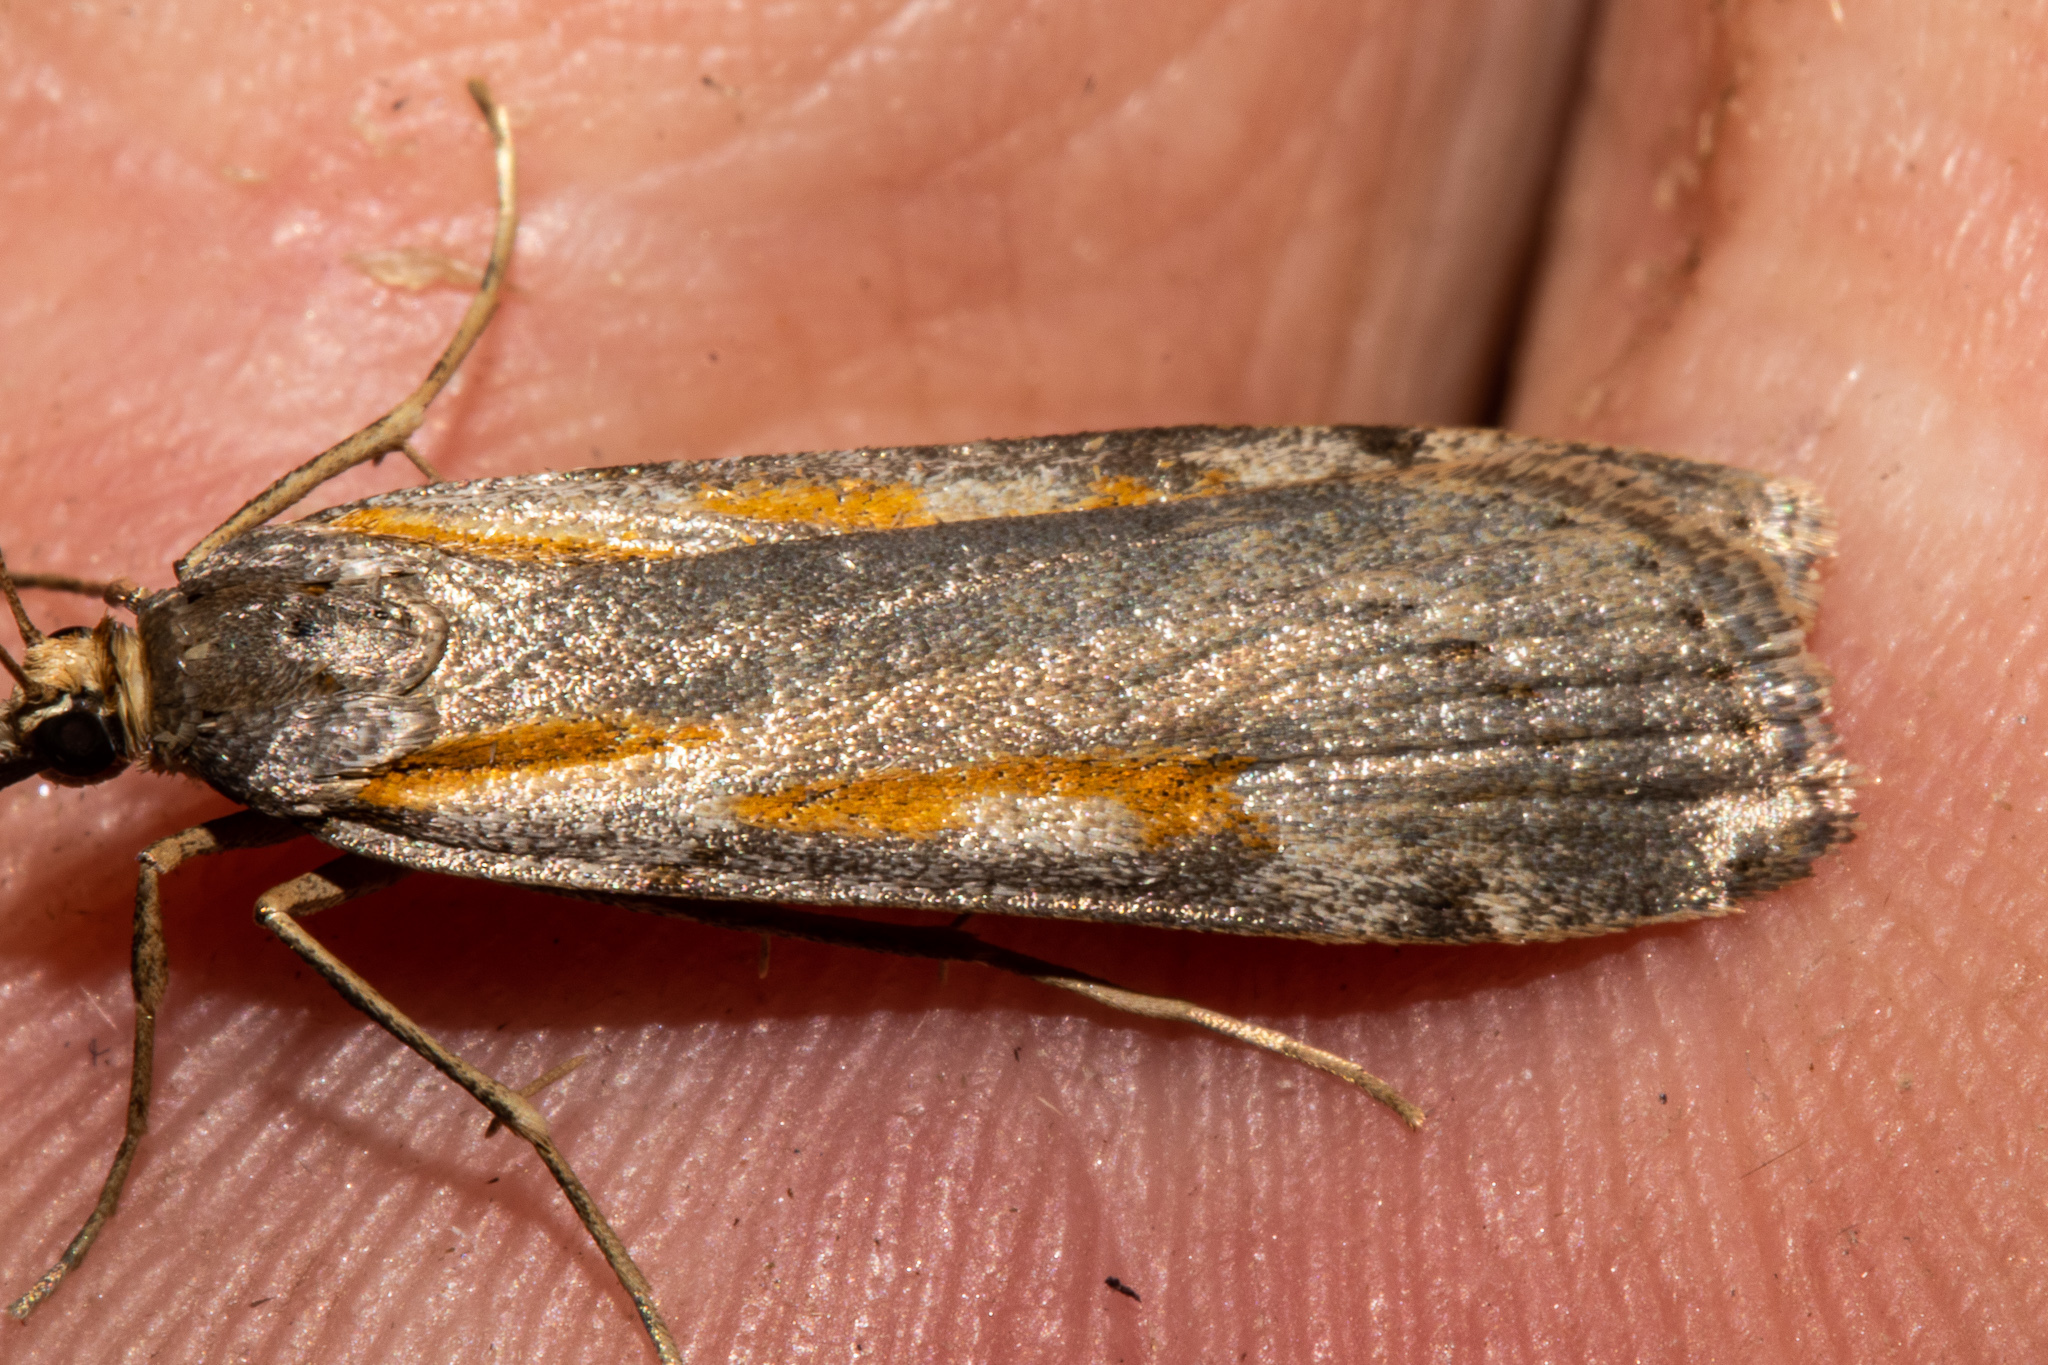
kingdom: Animalia
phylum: Arthropoda
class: Insecta
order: Lepidoptera
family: Crambidae
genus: Scoparia
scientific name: Scoparia scripta
